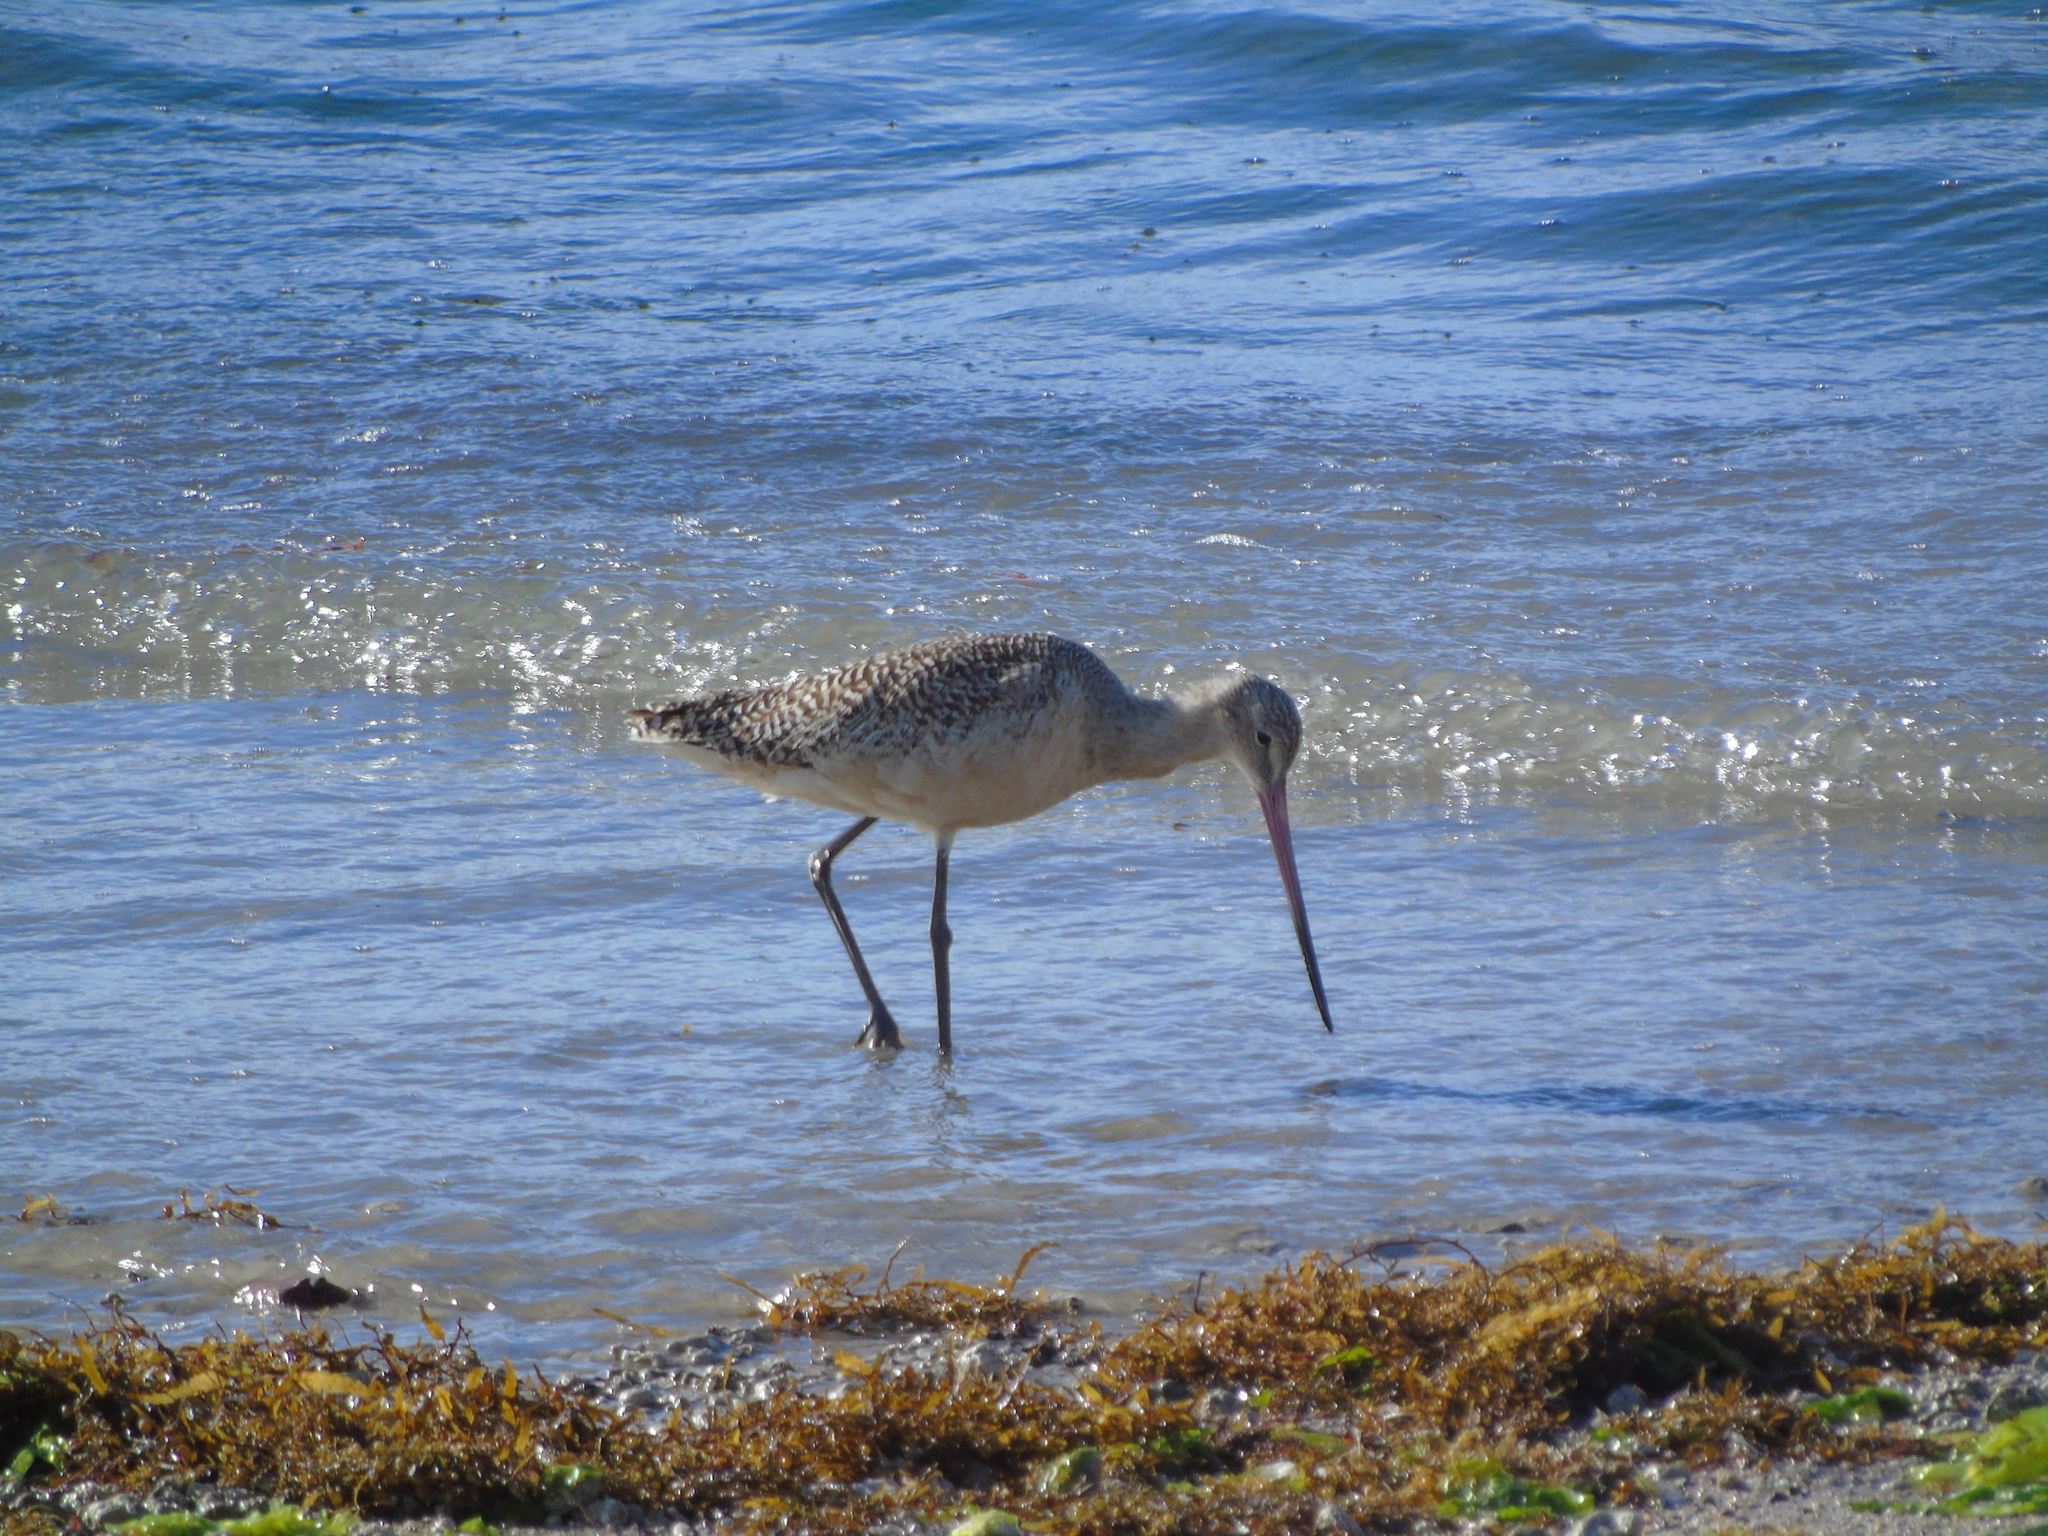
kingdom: Animalia
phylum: Chordata
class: Aves
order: Charadriiformes
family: Scolopacidae
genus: Limosa
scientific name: Limosa fedoa
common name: Marbled godwit
